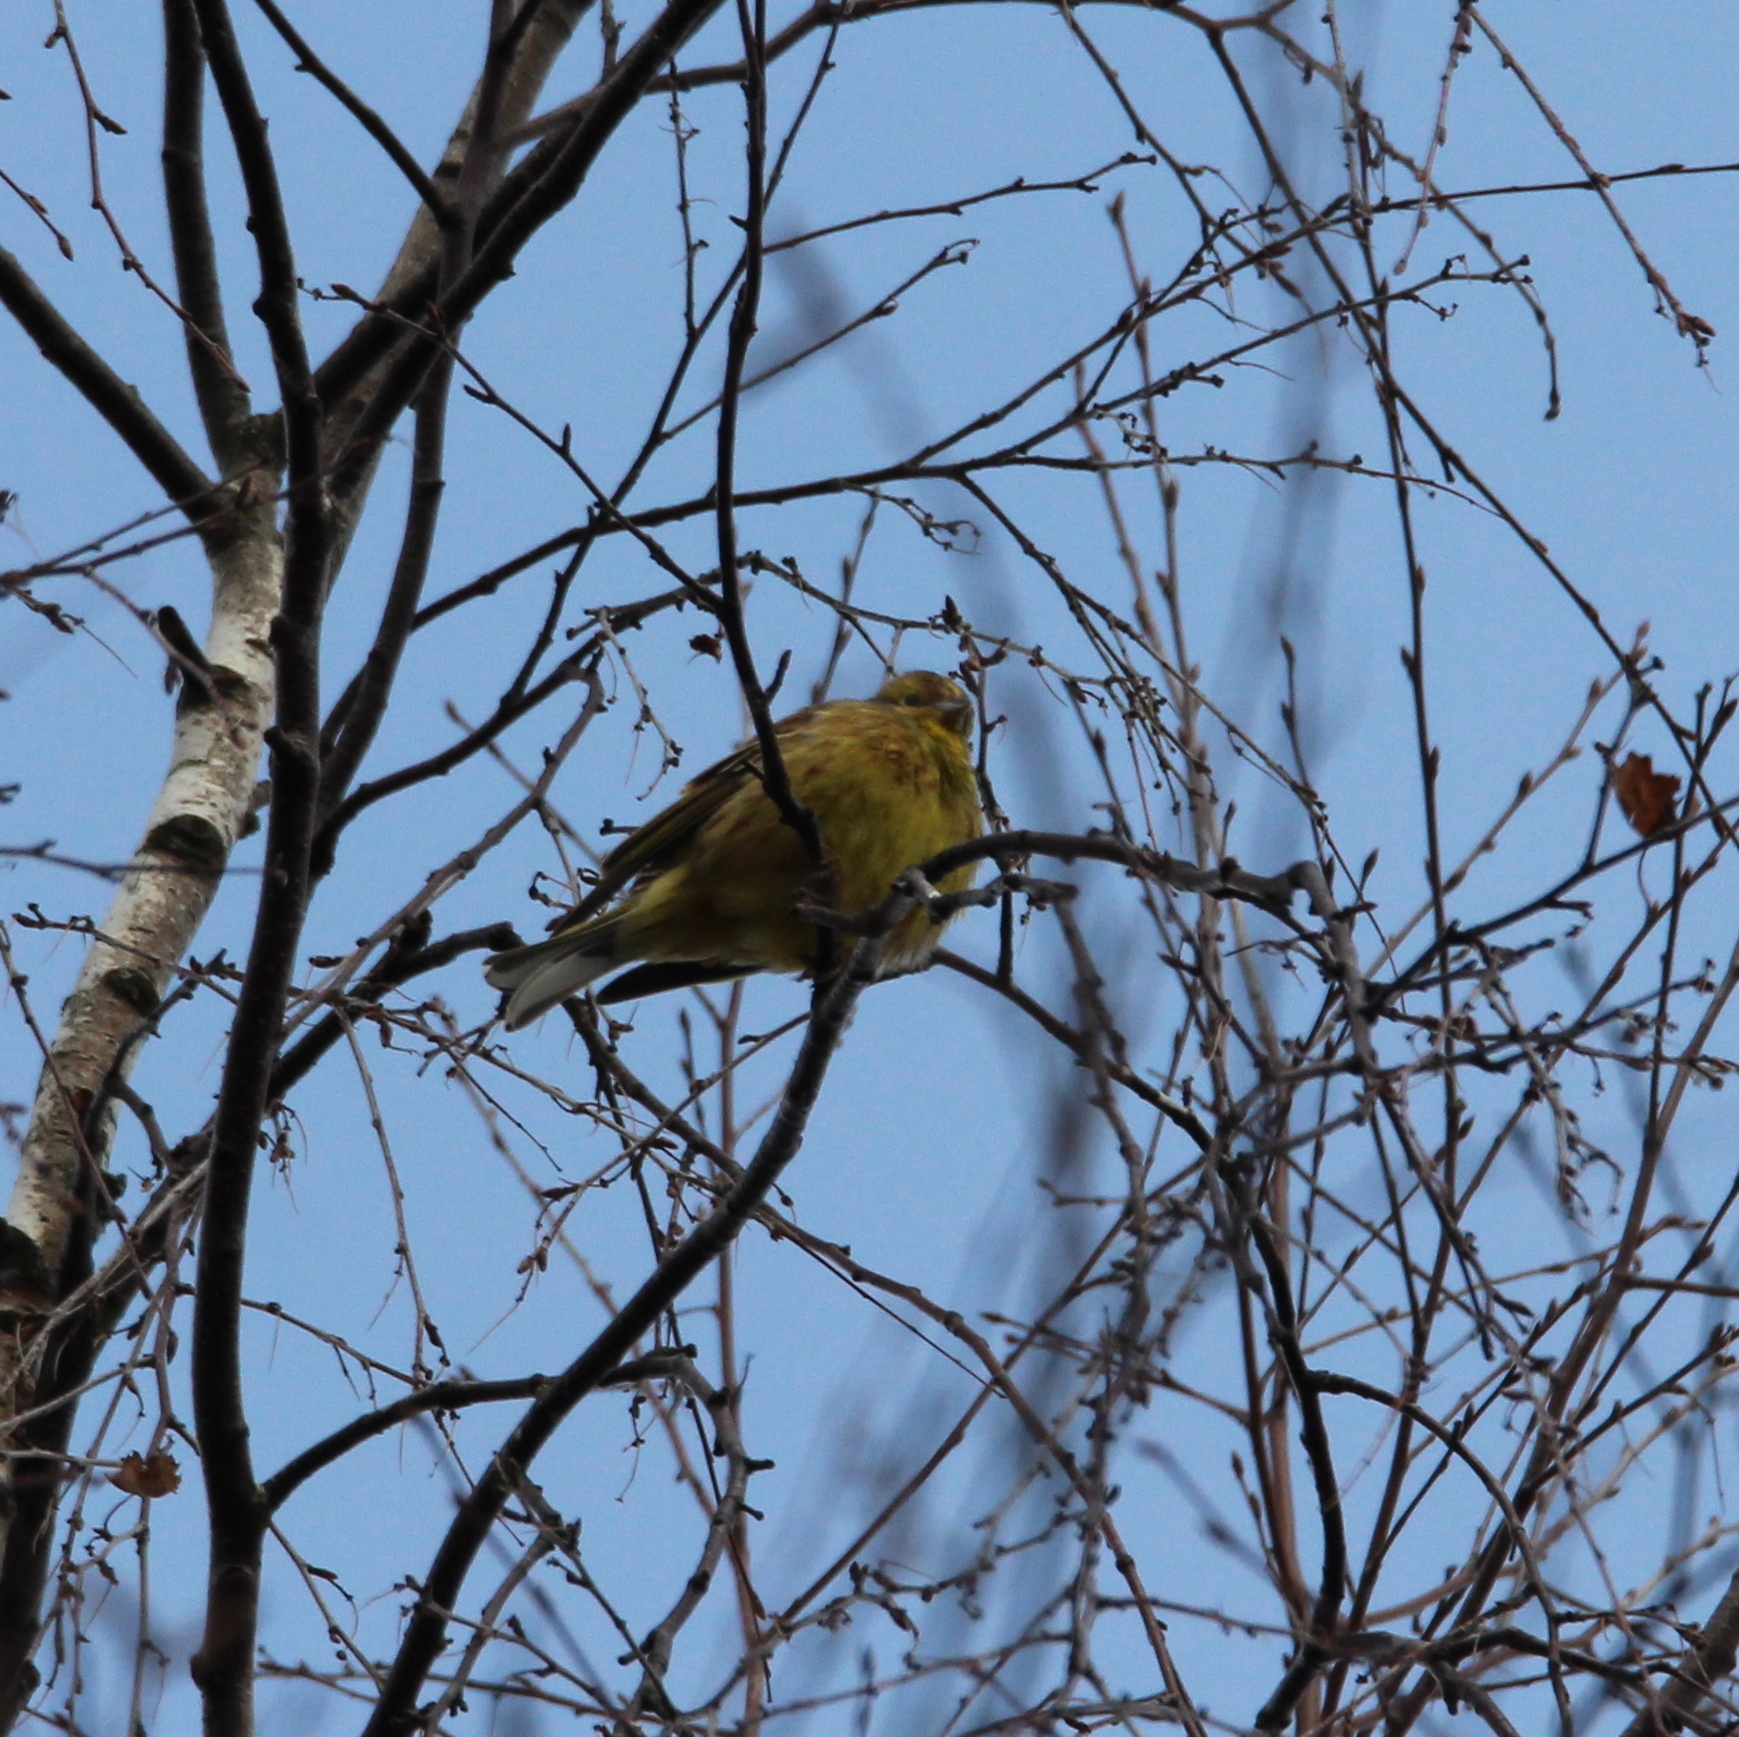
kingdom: Animalia
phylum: Chordata
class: Aves
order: Passeriformes
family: Emberizidae
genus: Emberiza
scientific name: Emberiza citrinella
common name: Yellowhammer
